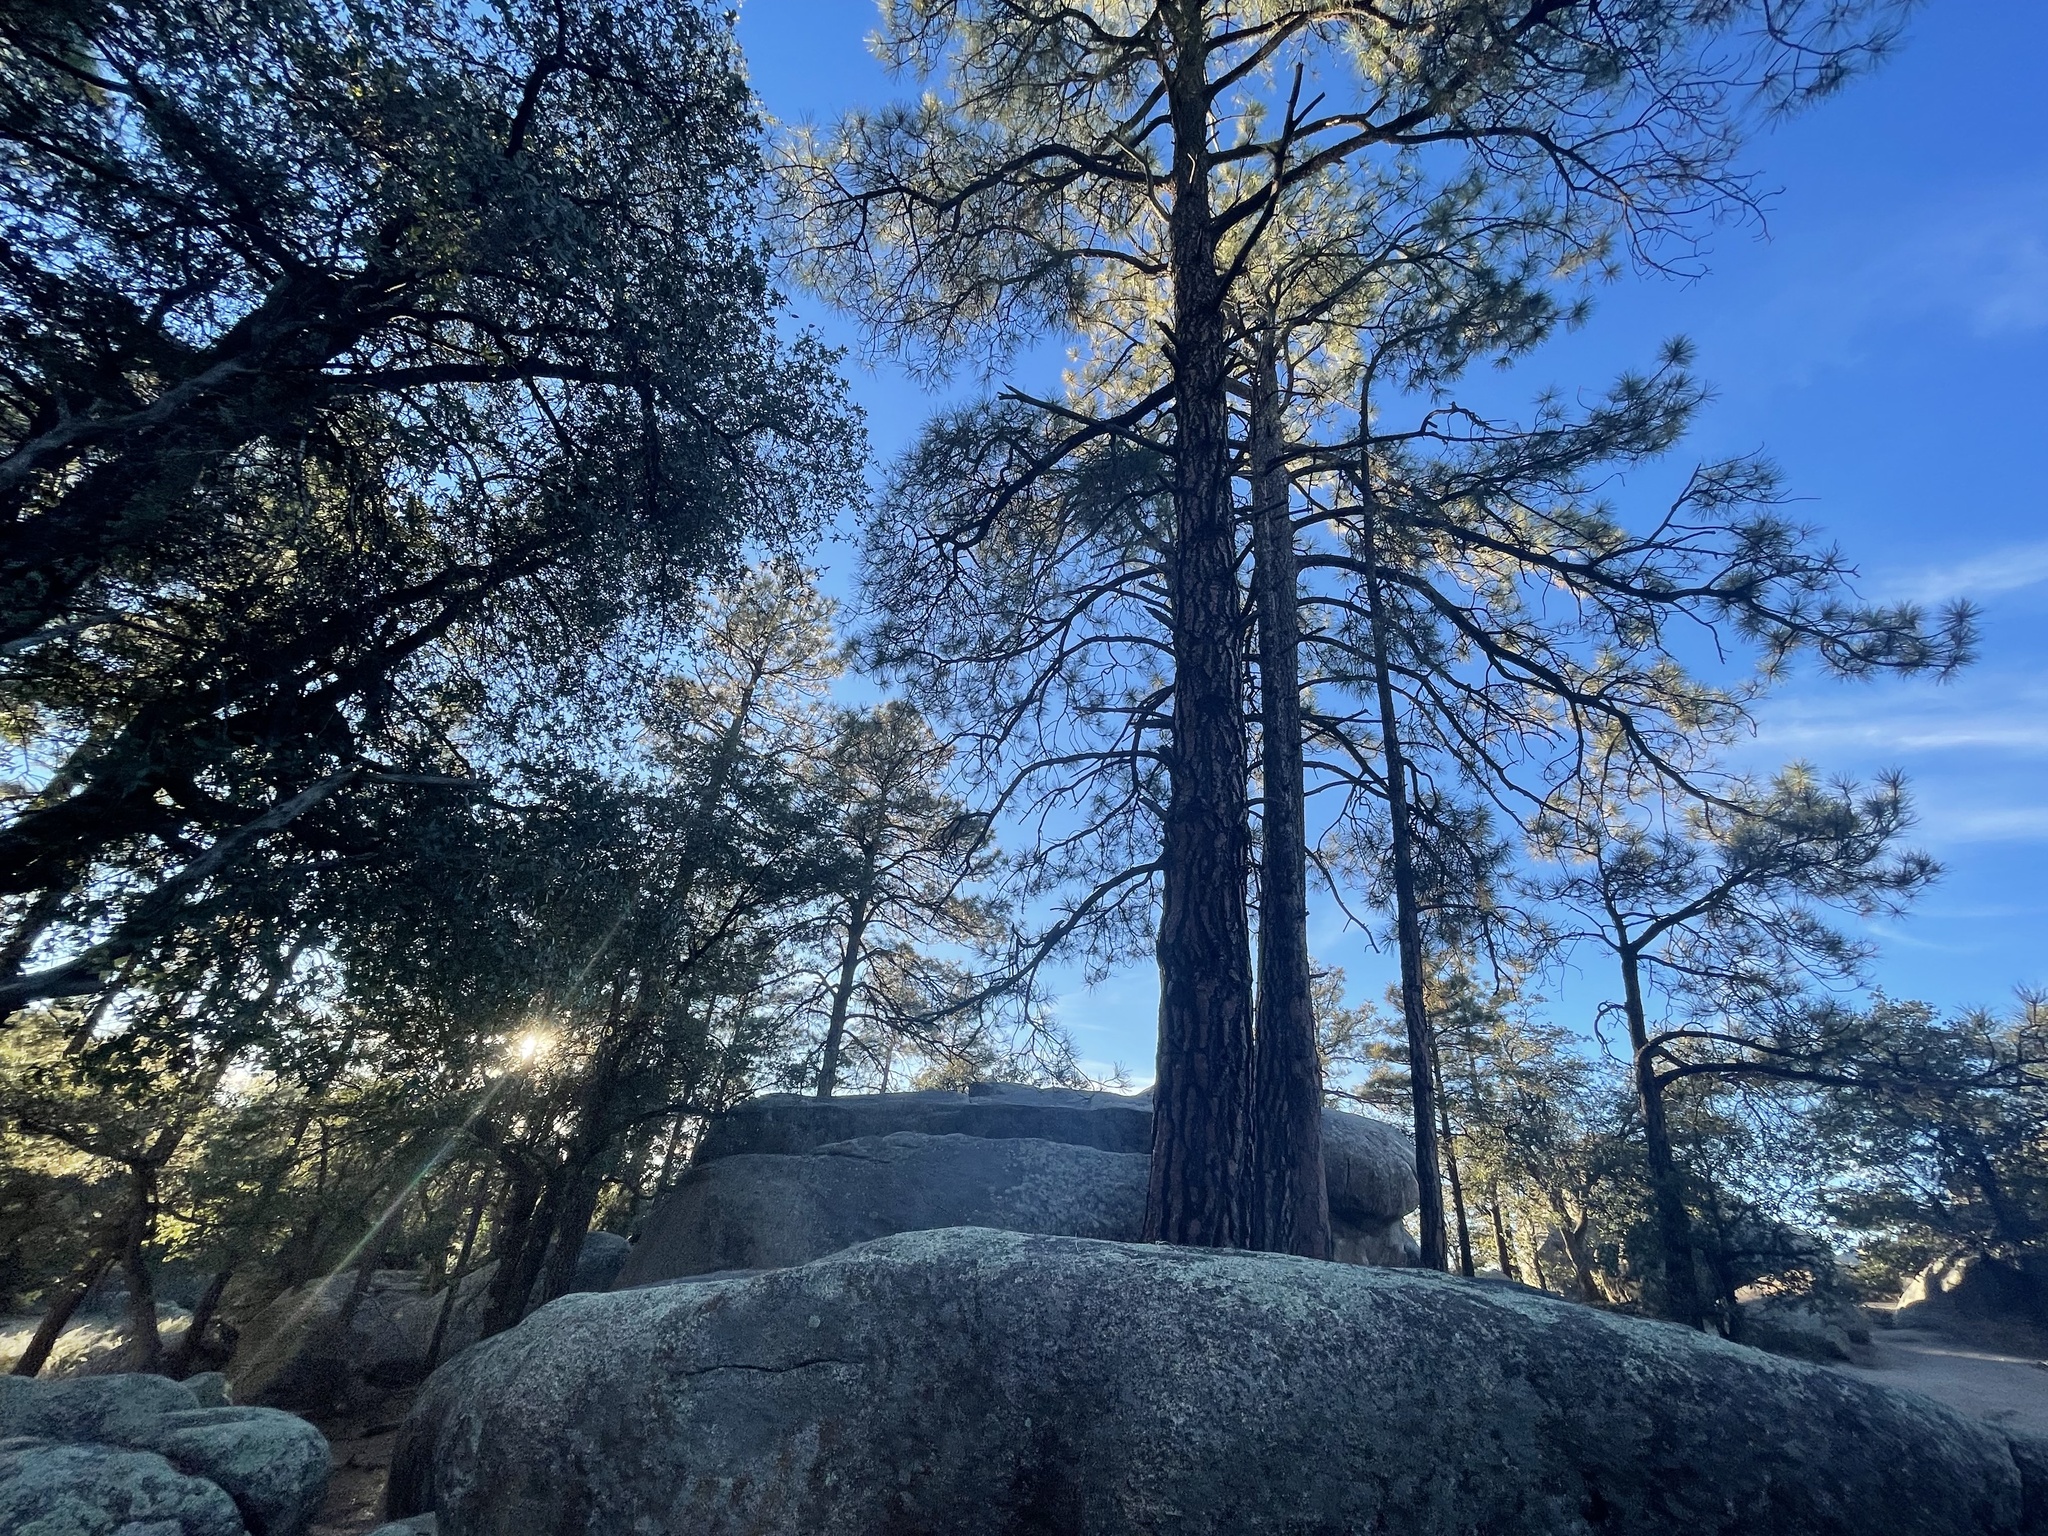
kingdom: Plantae
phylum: Tracheophyta
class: Pinopsida
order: Pinales
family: Pinaceae
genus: Pinus
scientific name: Pinus ponderosa
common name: Western yellow-pine
